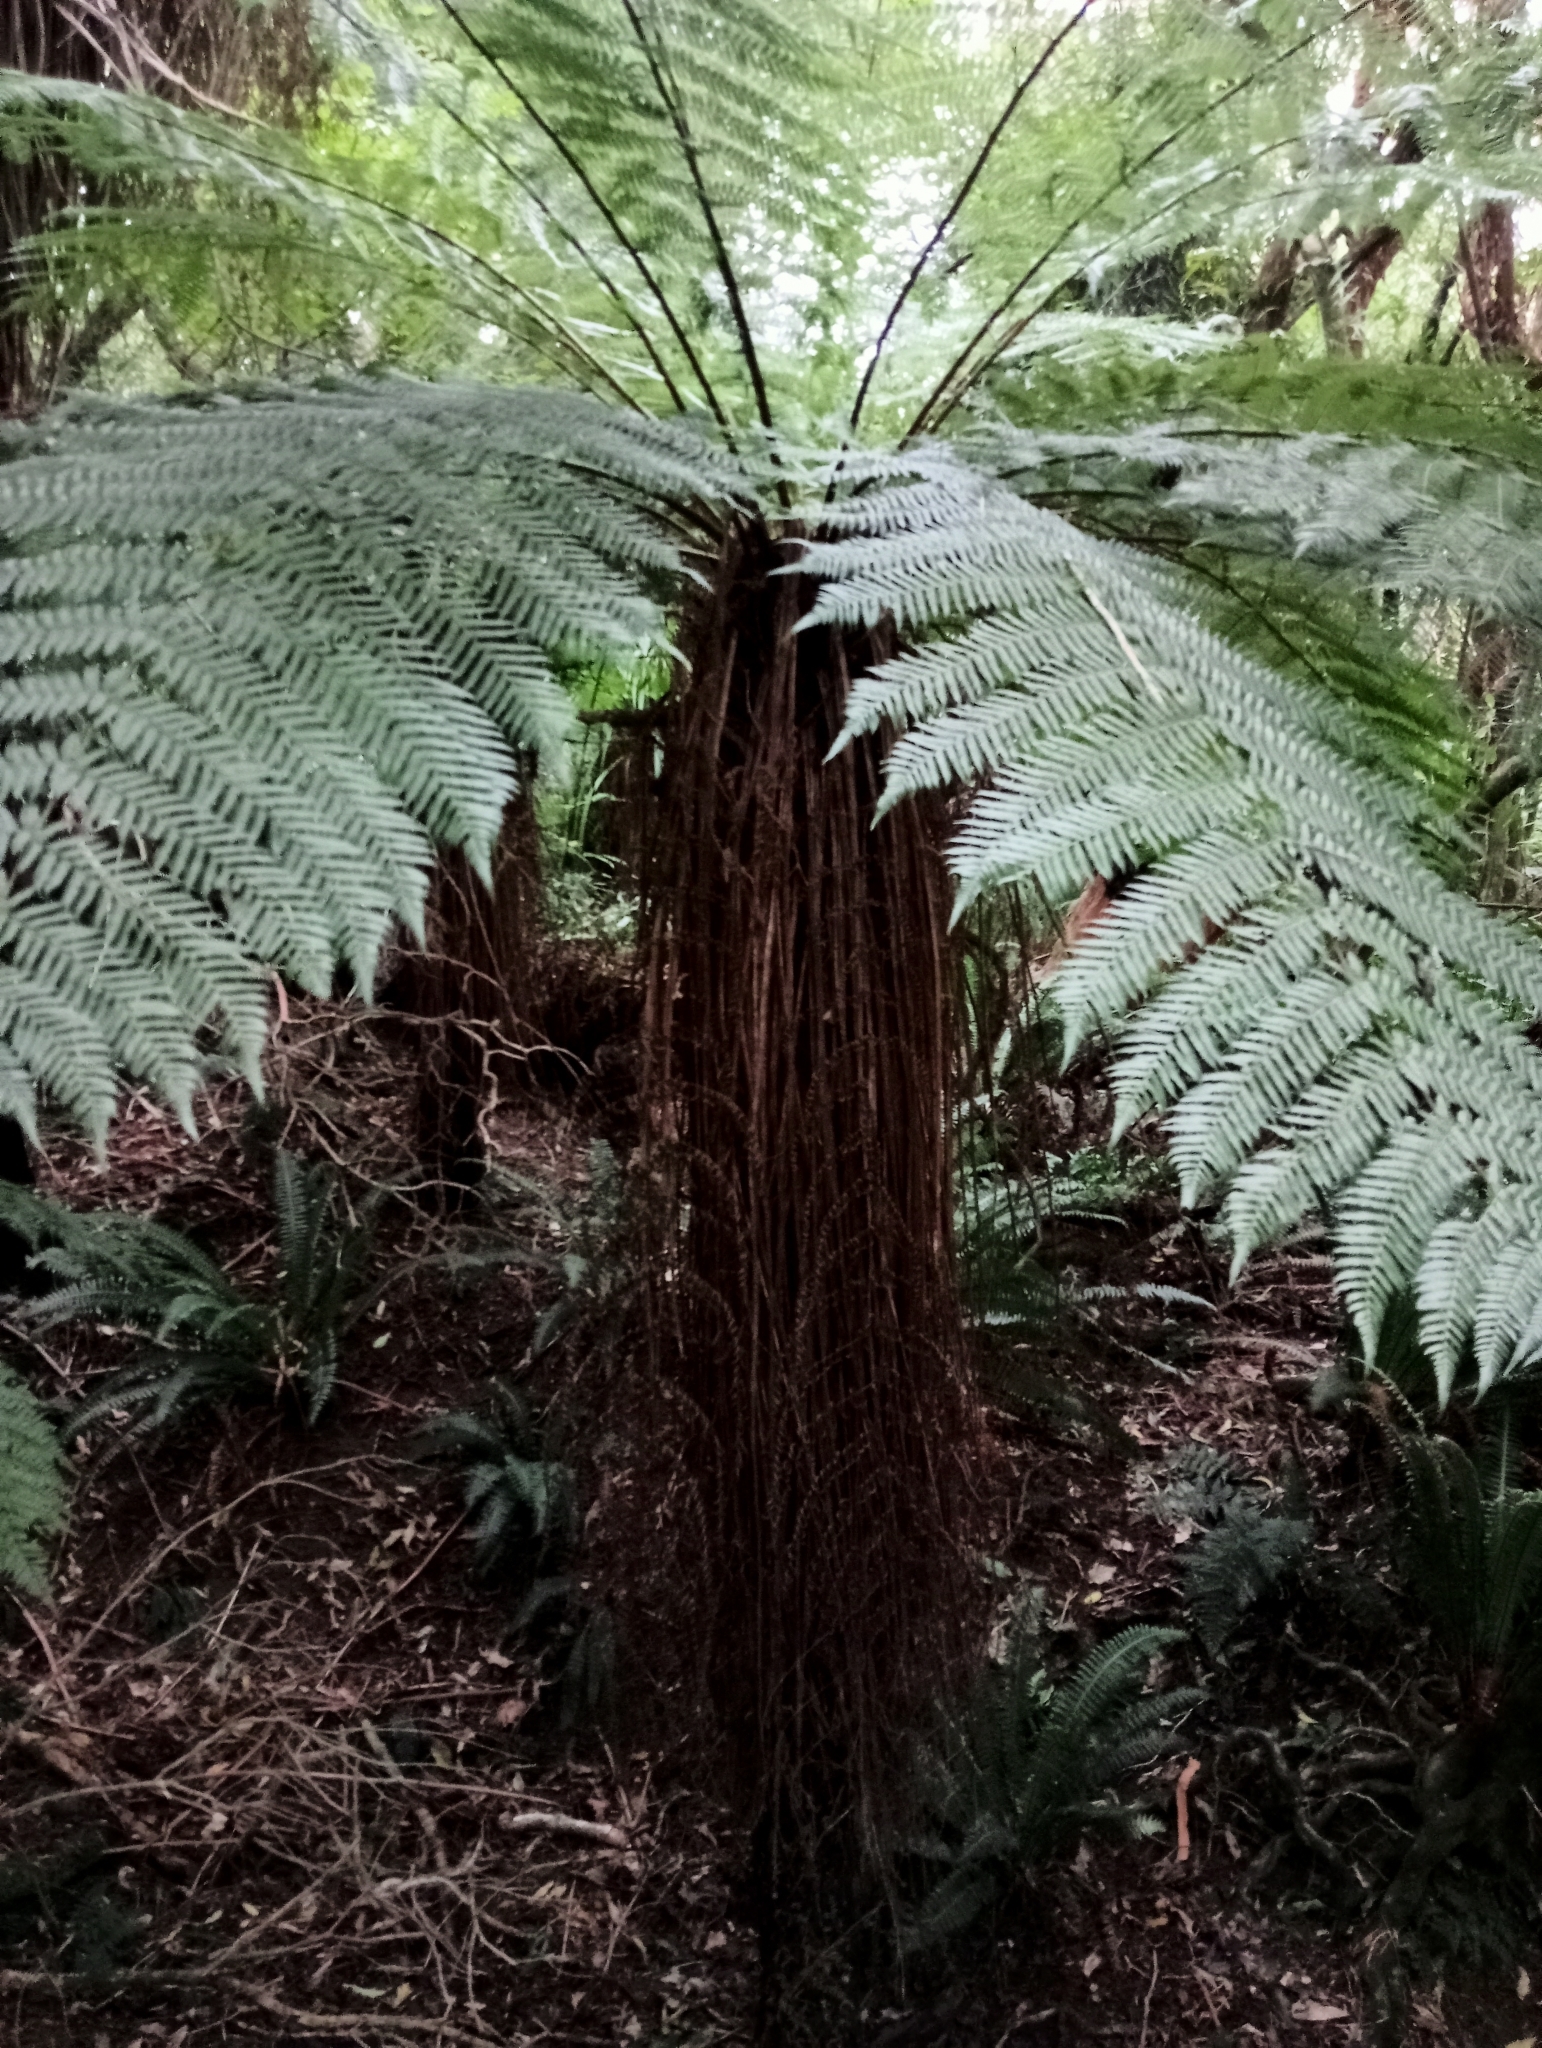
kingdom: Plantae
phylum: Tracheophyta
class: Polypodiopsida
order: Cyatheales
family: Cyatheaceae
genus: Alsophila
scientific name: Alsophila smithii
